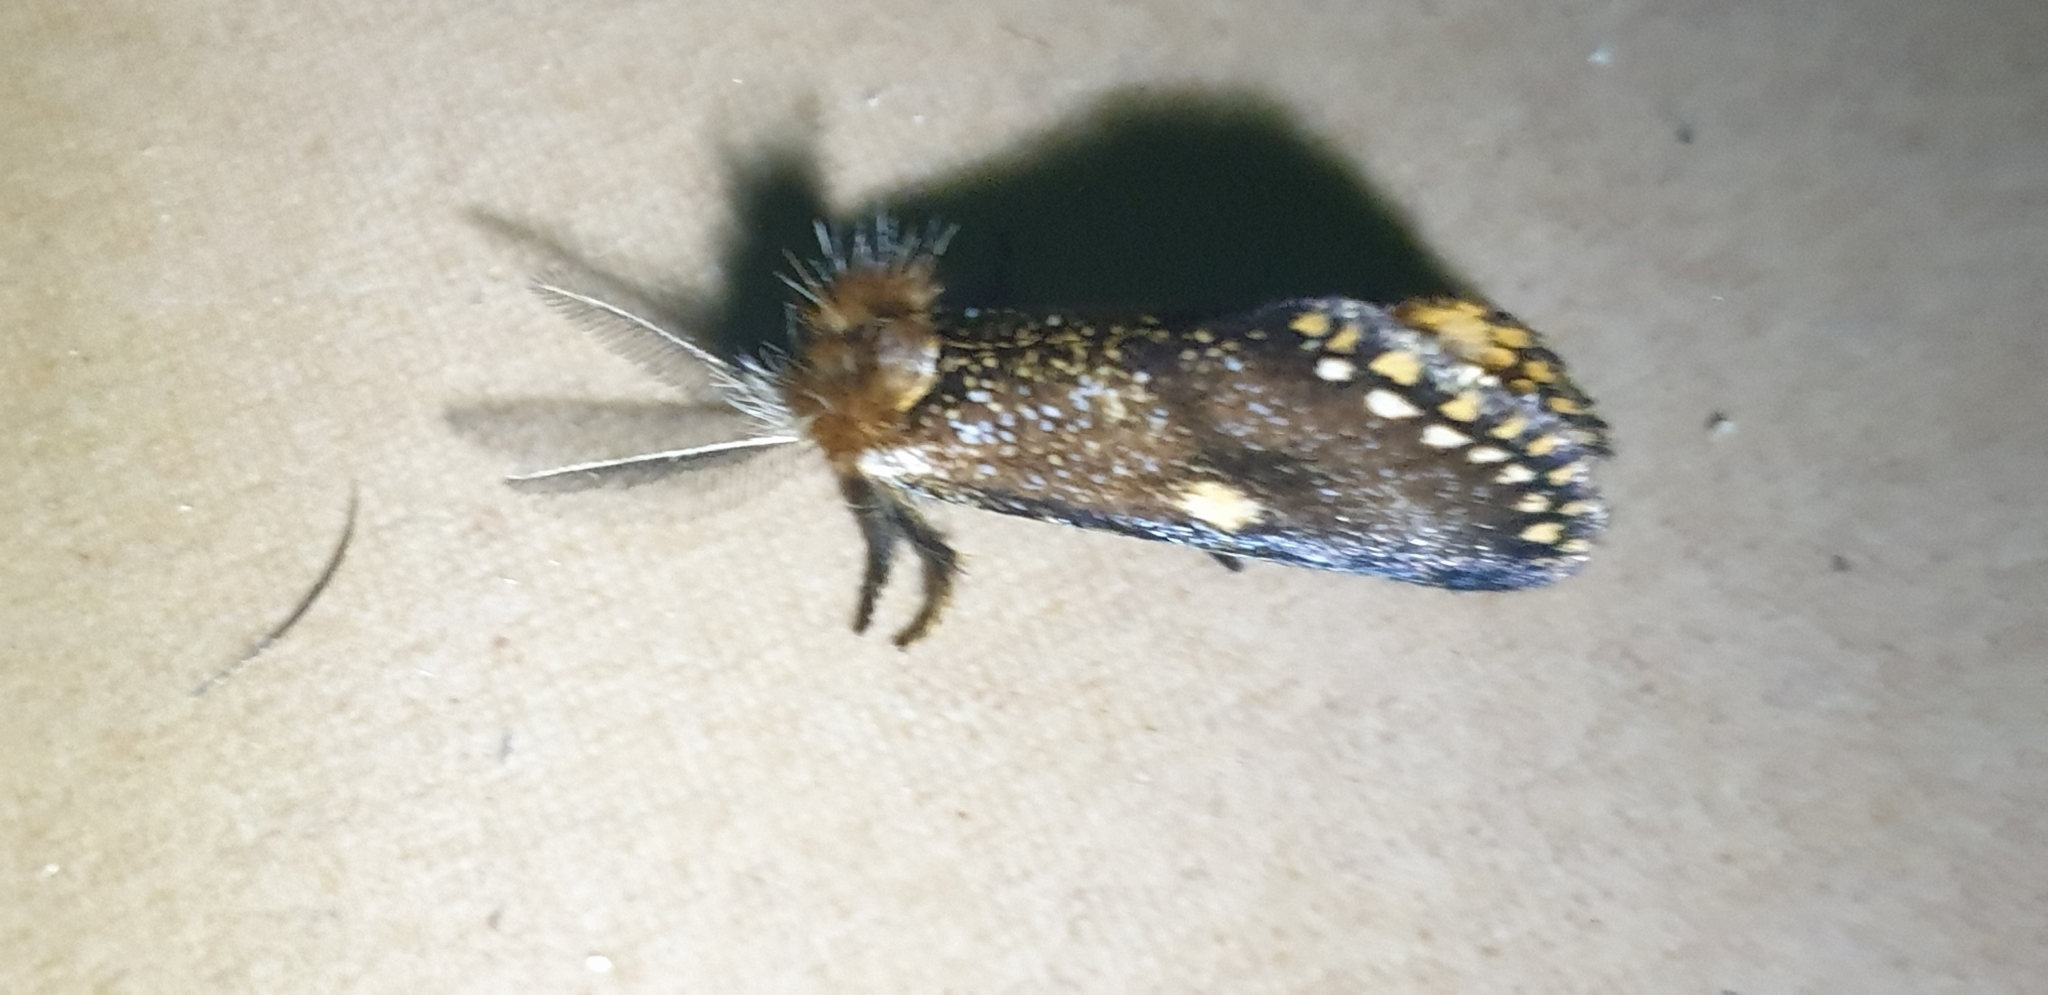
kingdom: Animalia
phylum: Arthropoda
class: Insecta
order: Lepidoptera
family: Notodontidae
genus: Epicoma
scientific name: Epicoma protrahens
